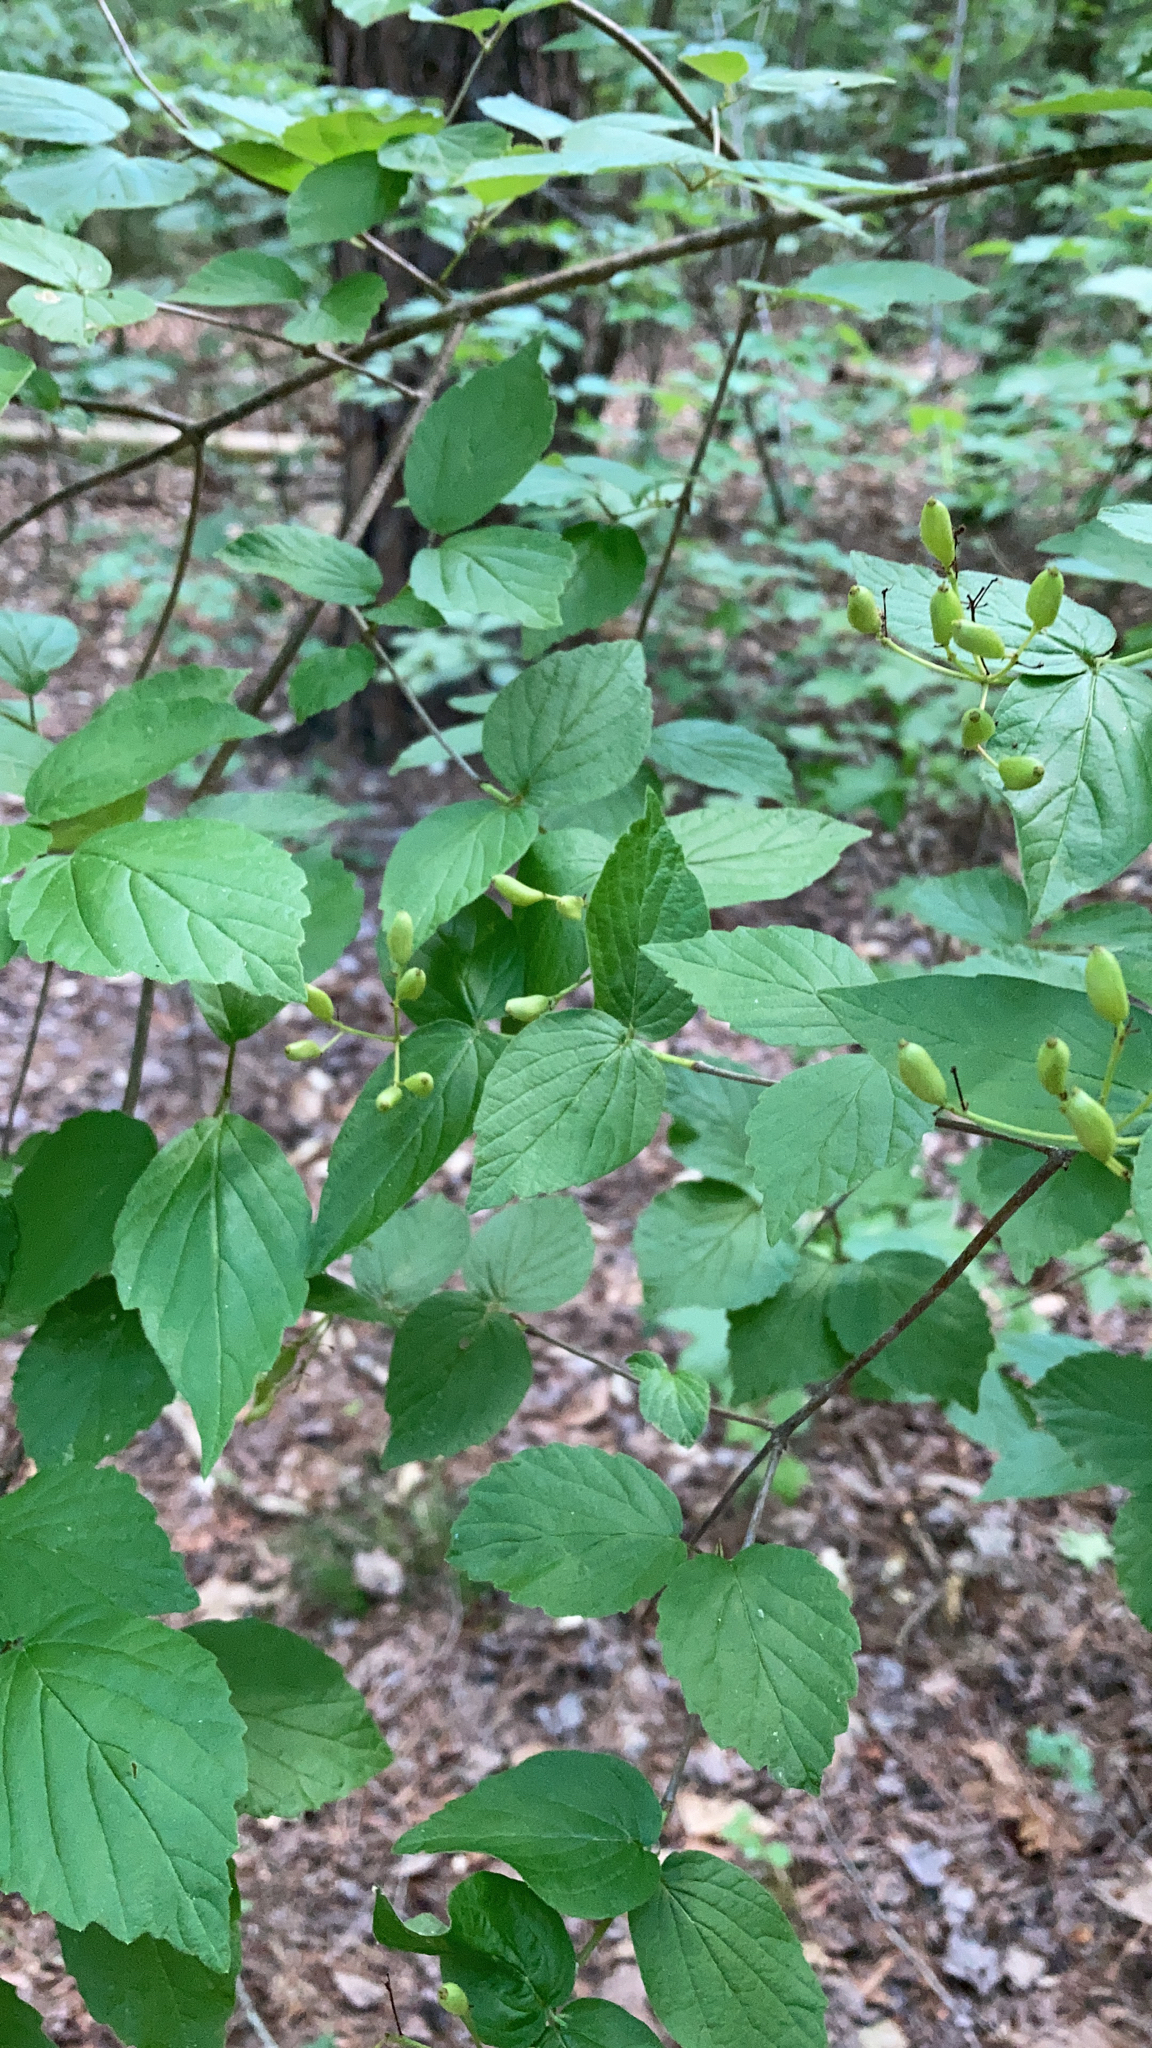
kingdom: Plantae
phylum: Tracheophyta
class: Magnoliopsida
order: Dipsacales
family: Viburnaceae
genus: Viburnum
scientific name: Viburnum rafinesqueanum
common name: Downy arrow-wood
